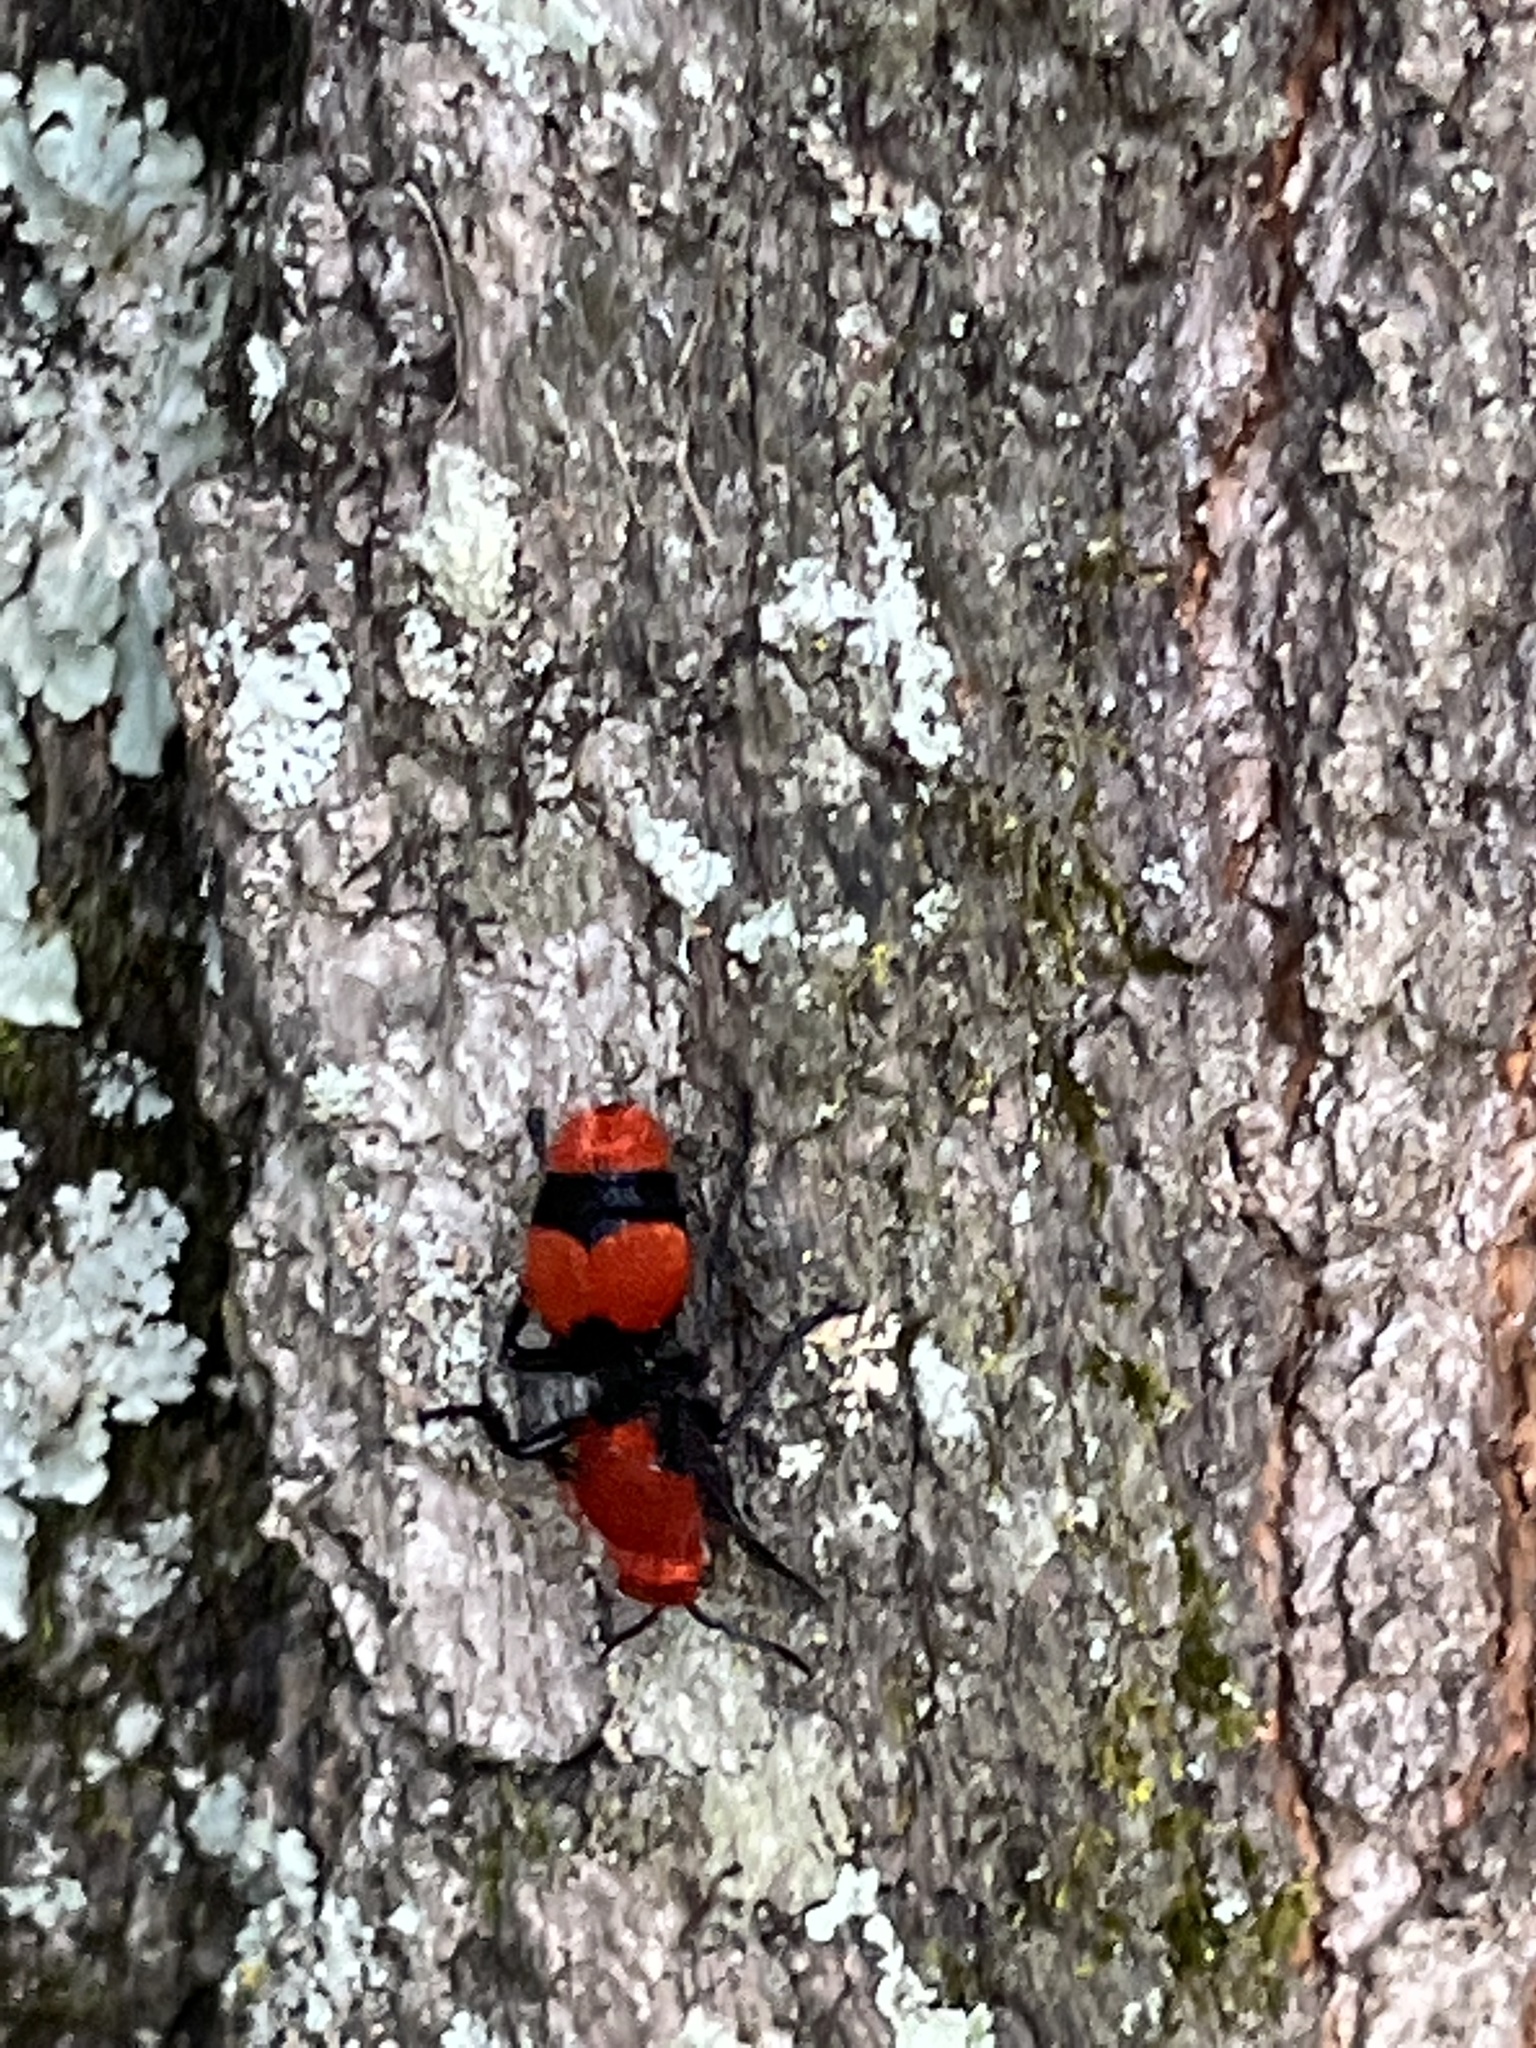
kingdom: Animalia
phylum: Arthropoda
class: Insecta
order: Hymenoptera
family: Mutillidae
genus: Dasymutilla
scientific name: Dasymutilla occidentalis
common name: Common eastern velvet ant
